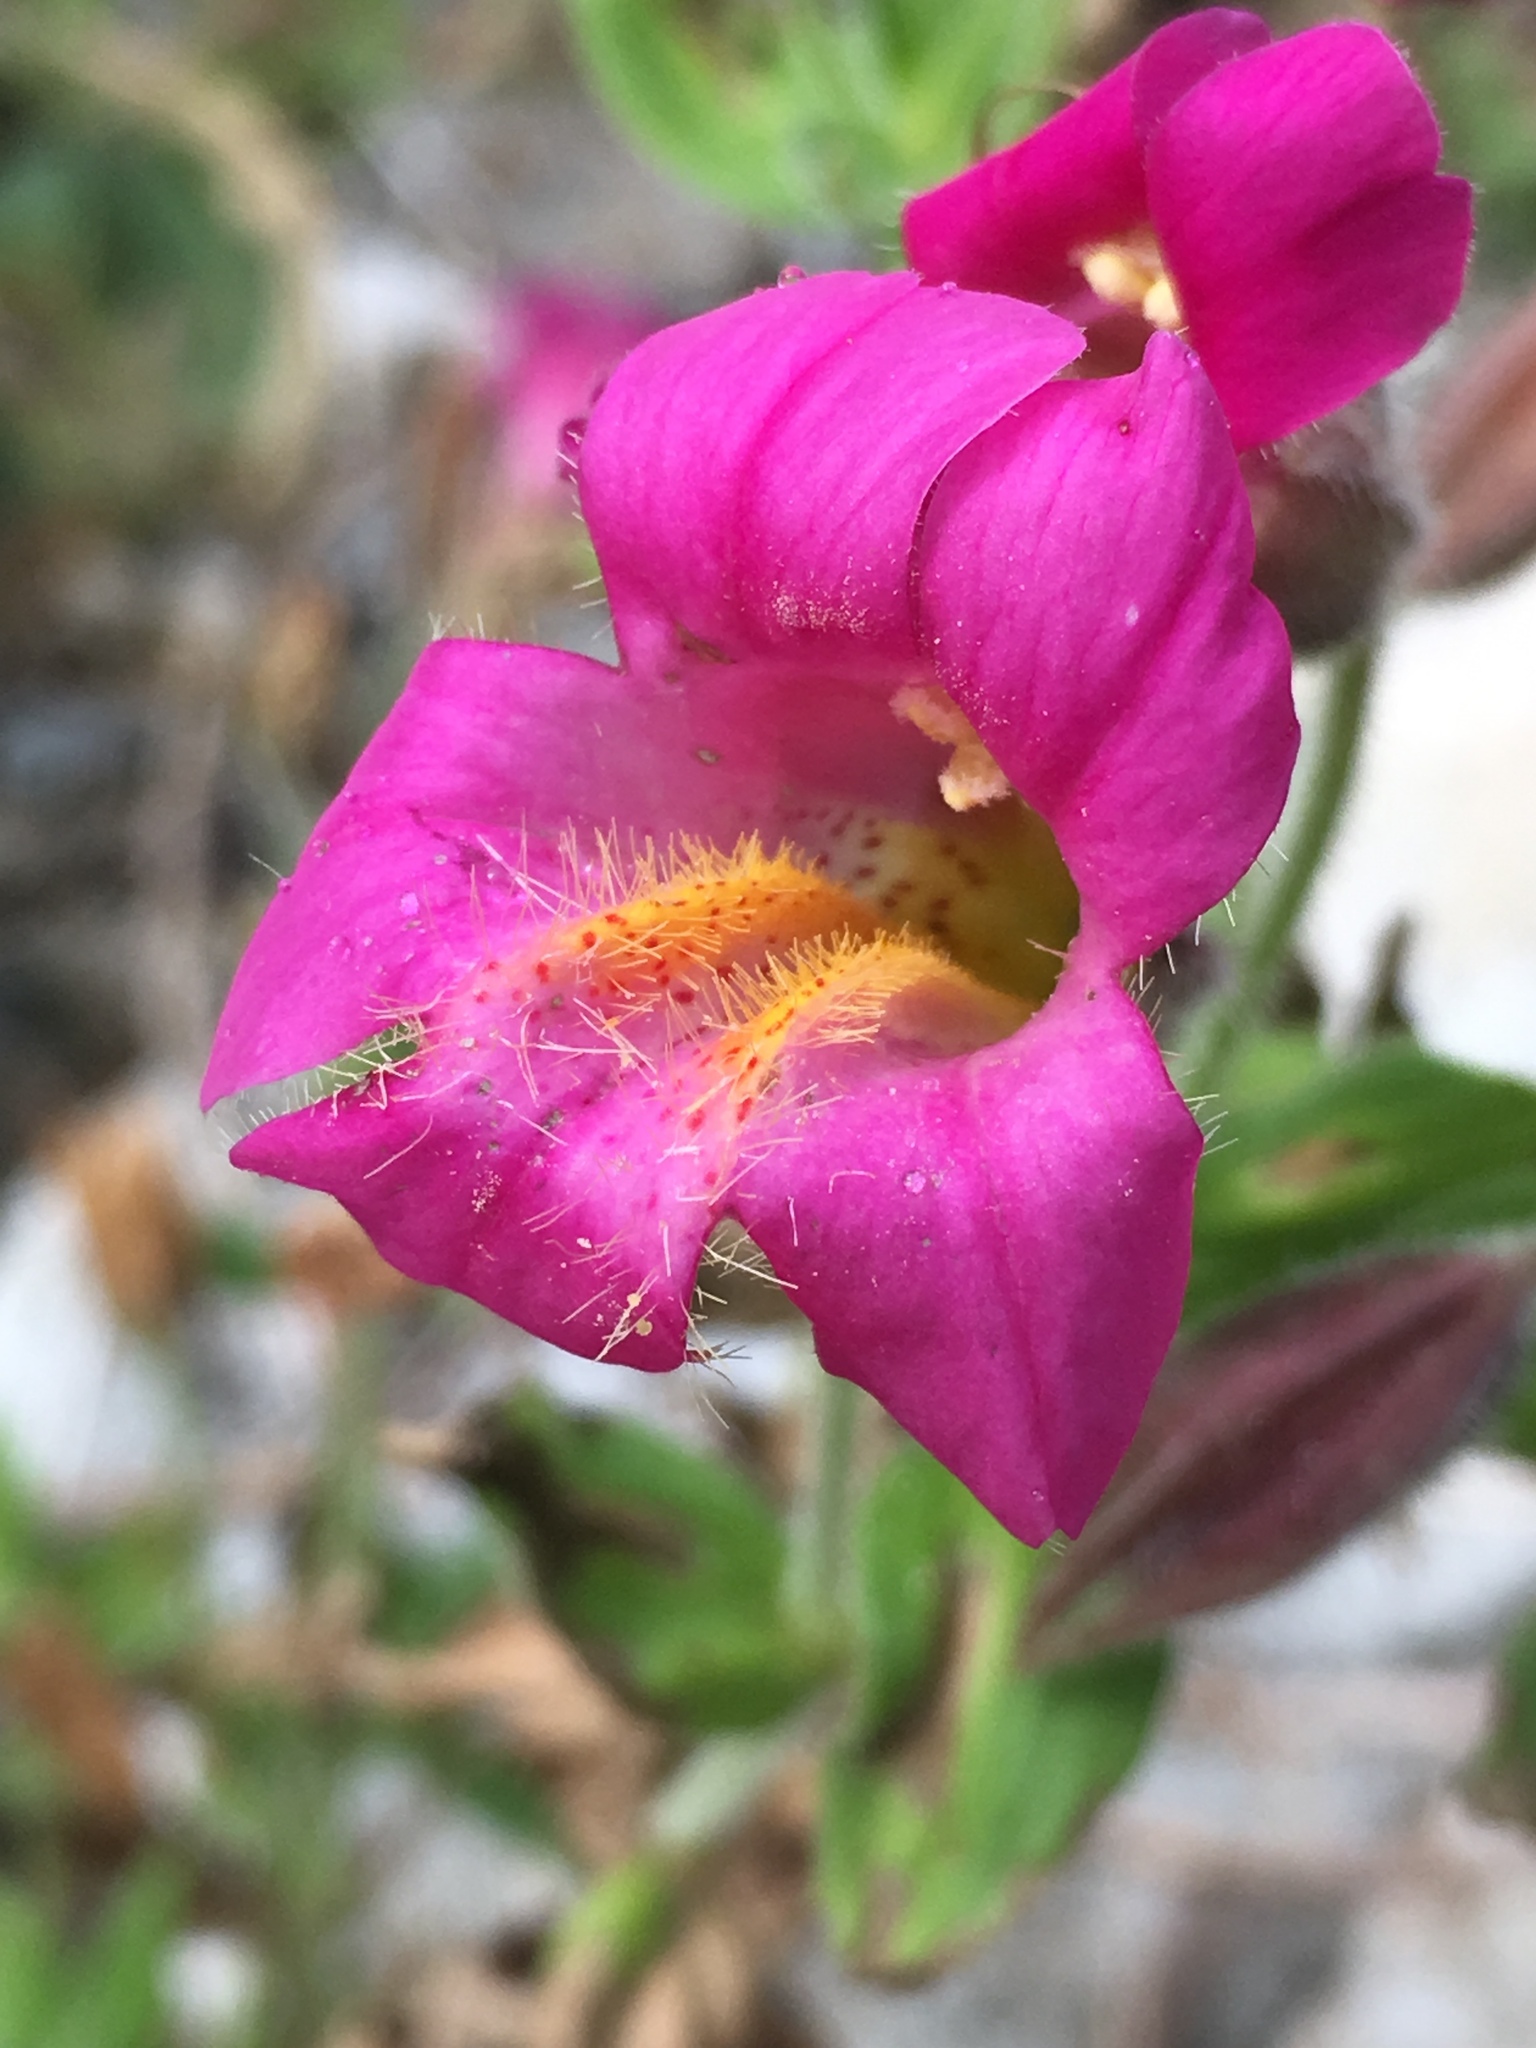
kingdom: Plantae
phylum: Tracheophyta
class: Magnoliopsida
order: Lamiales
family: Phrymaceae
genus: Erythranthe
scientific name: Erythranthe lewisii
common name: Lewis's monkey-flower
